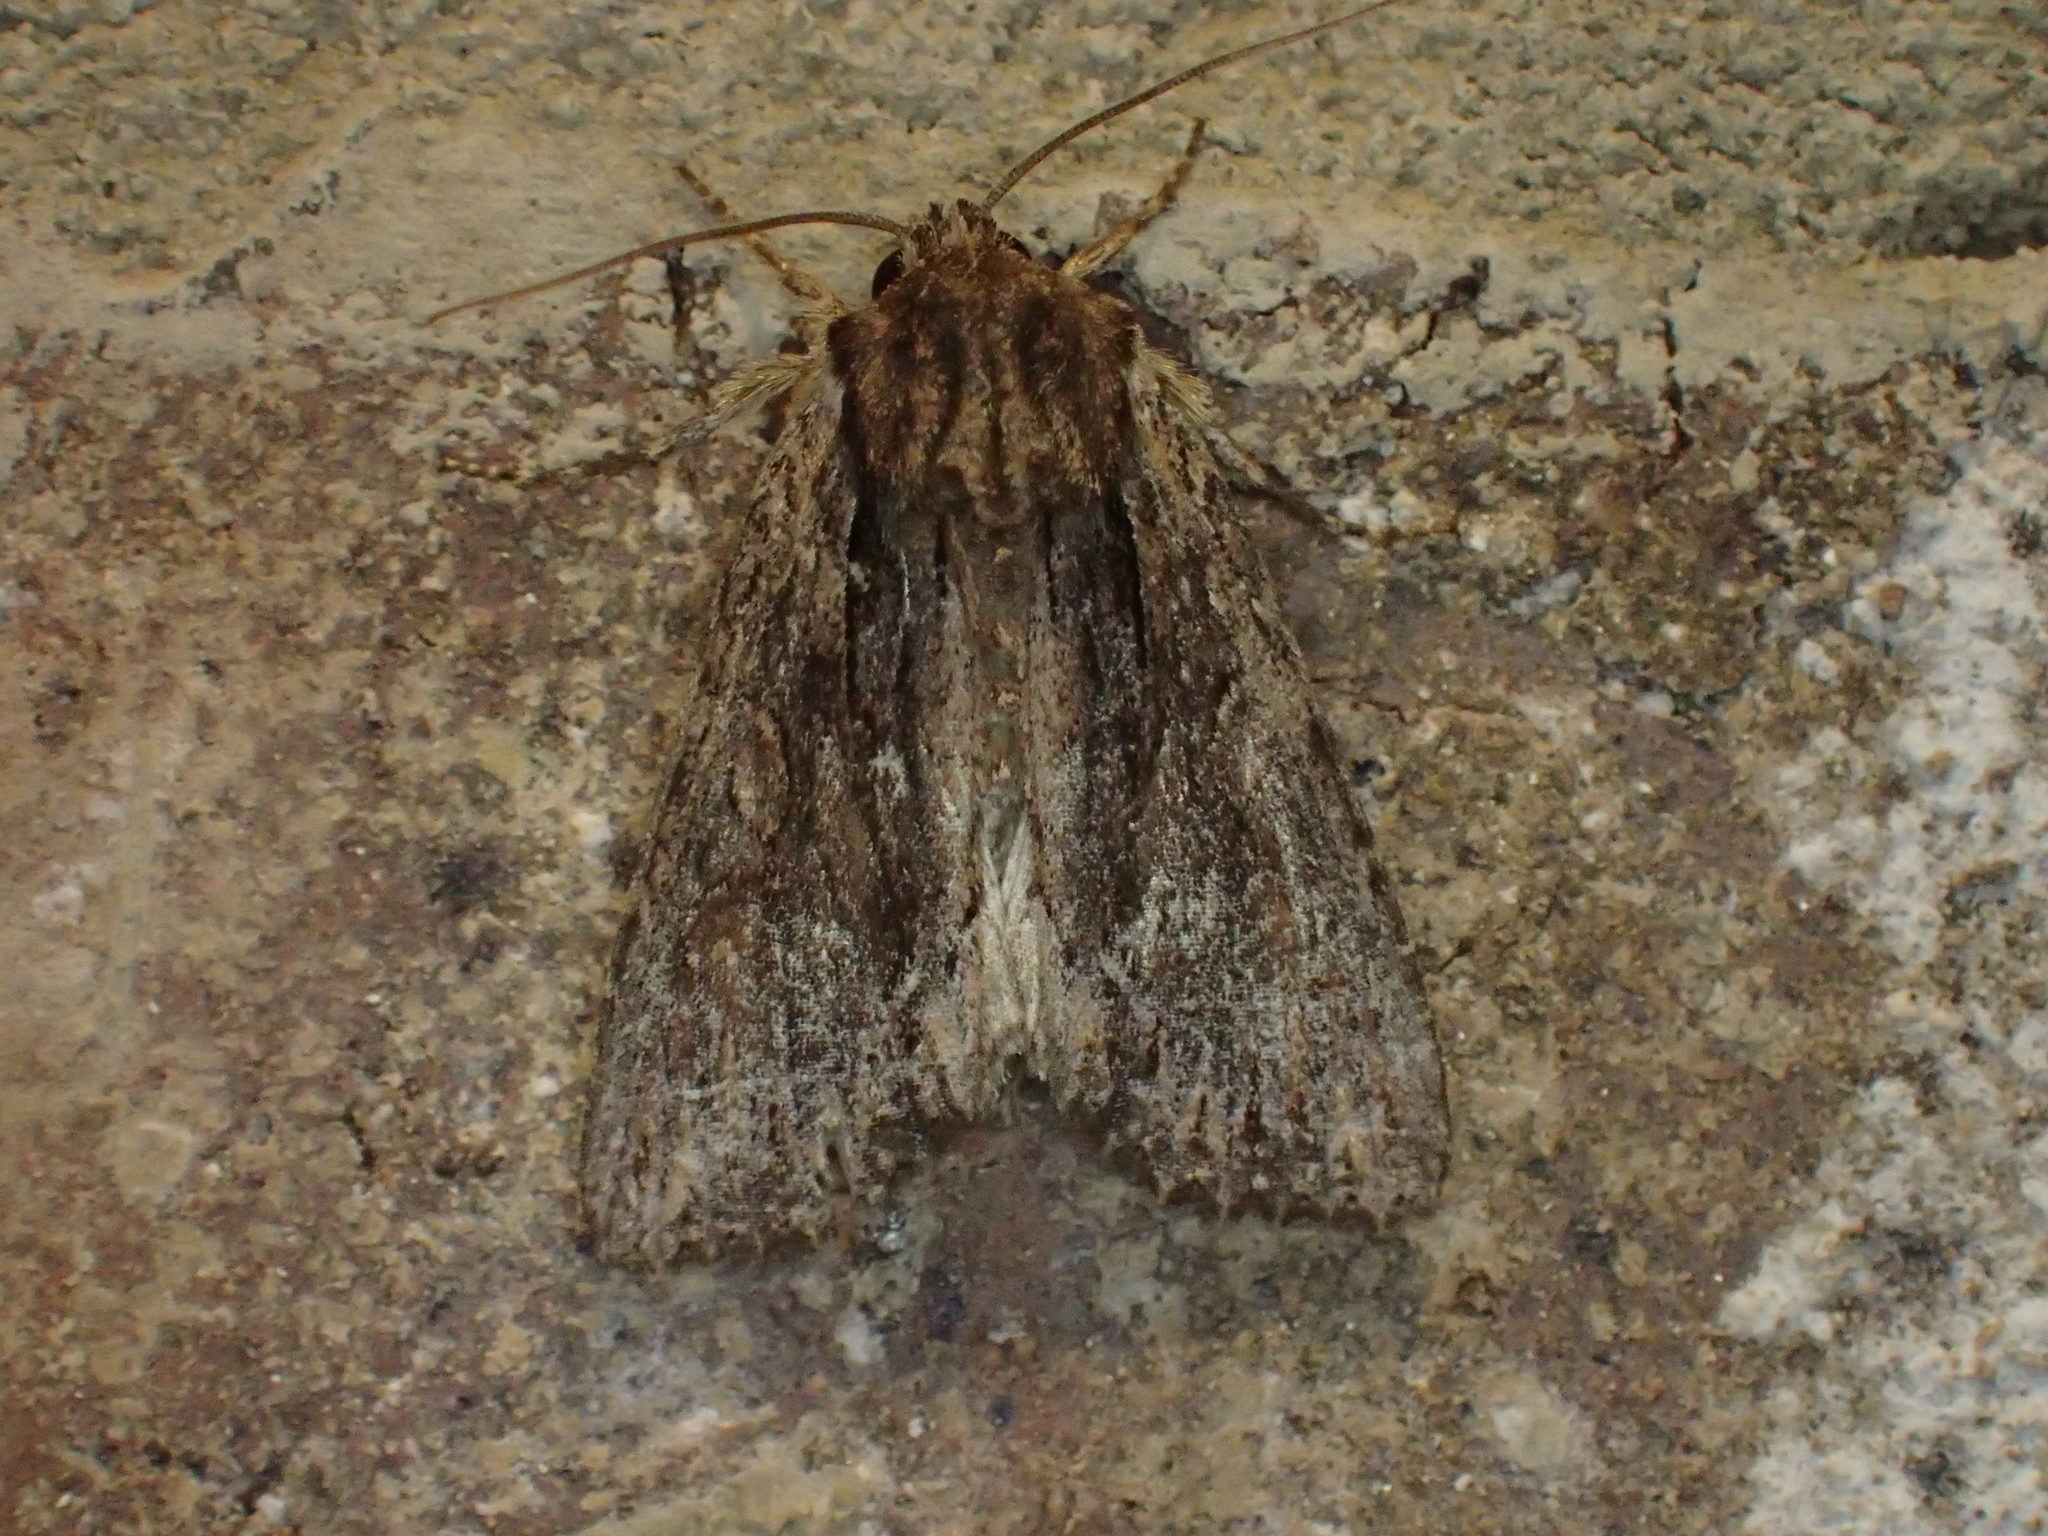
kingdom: Animalia
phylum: Arthropoda
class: Insecta
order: Lepidoptera
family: Noctuidae
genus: Achatia
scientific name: Achatia confusa
